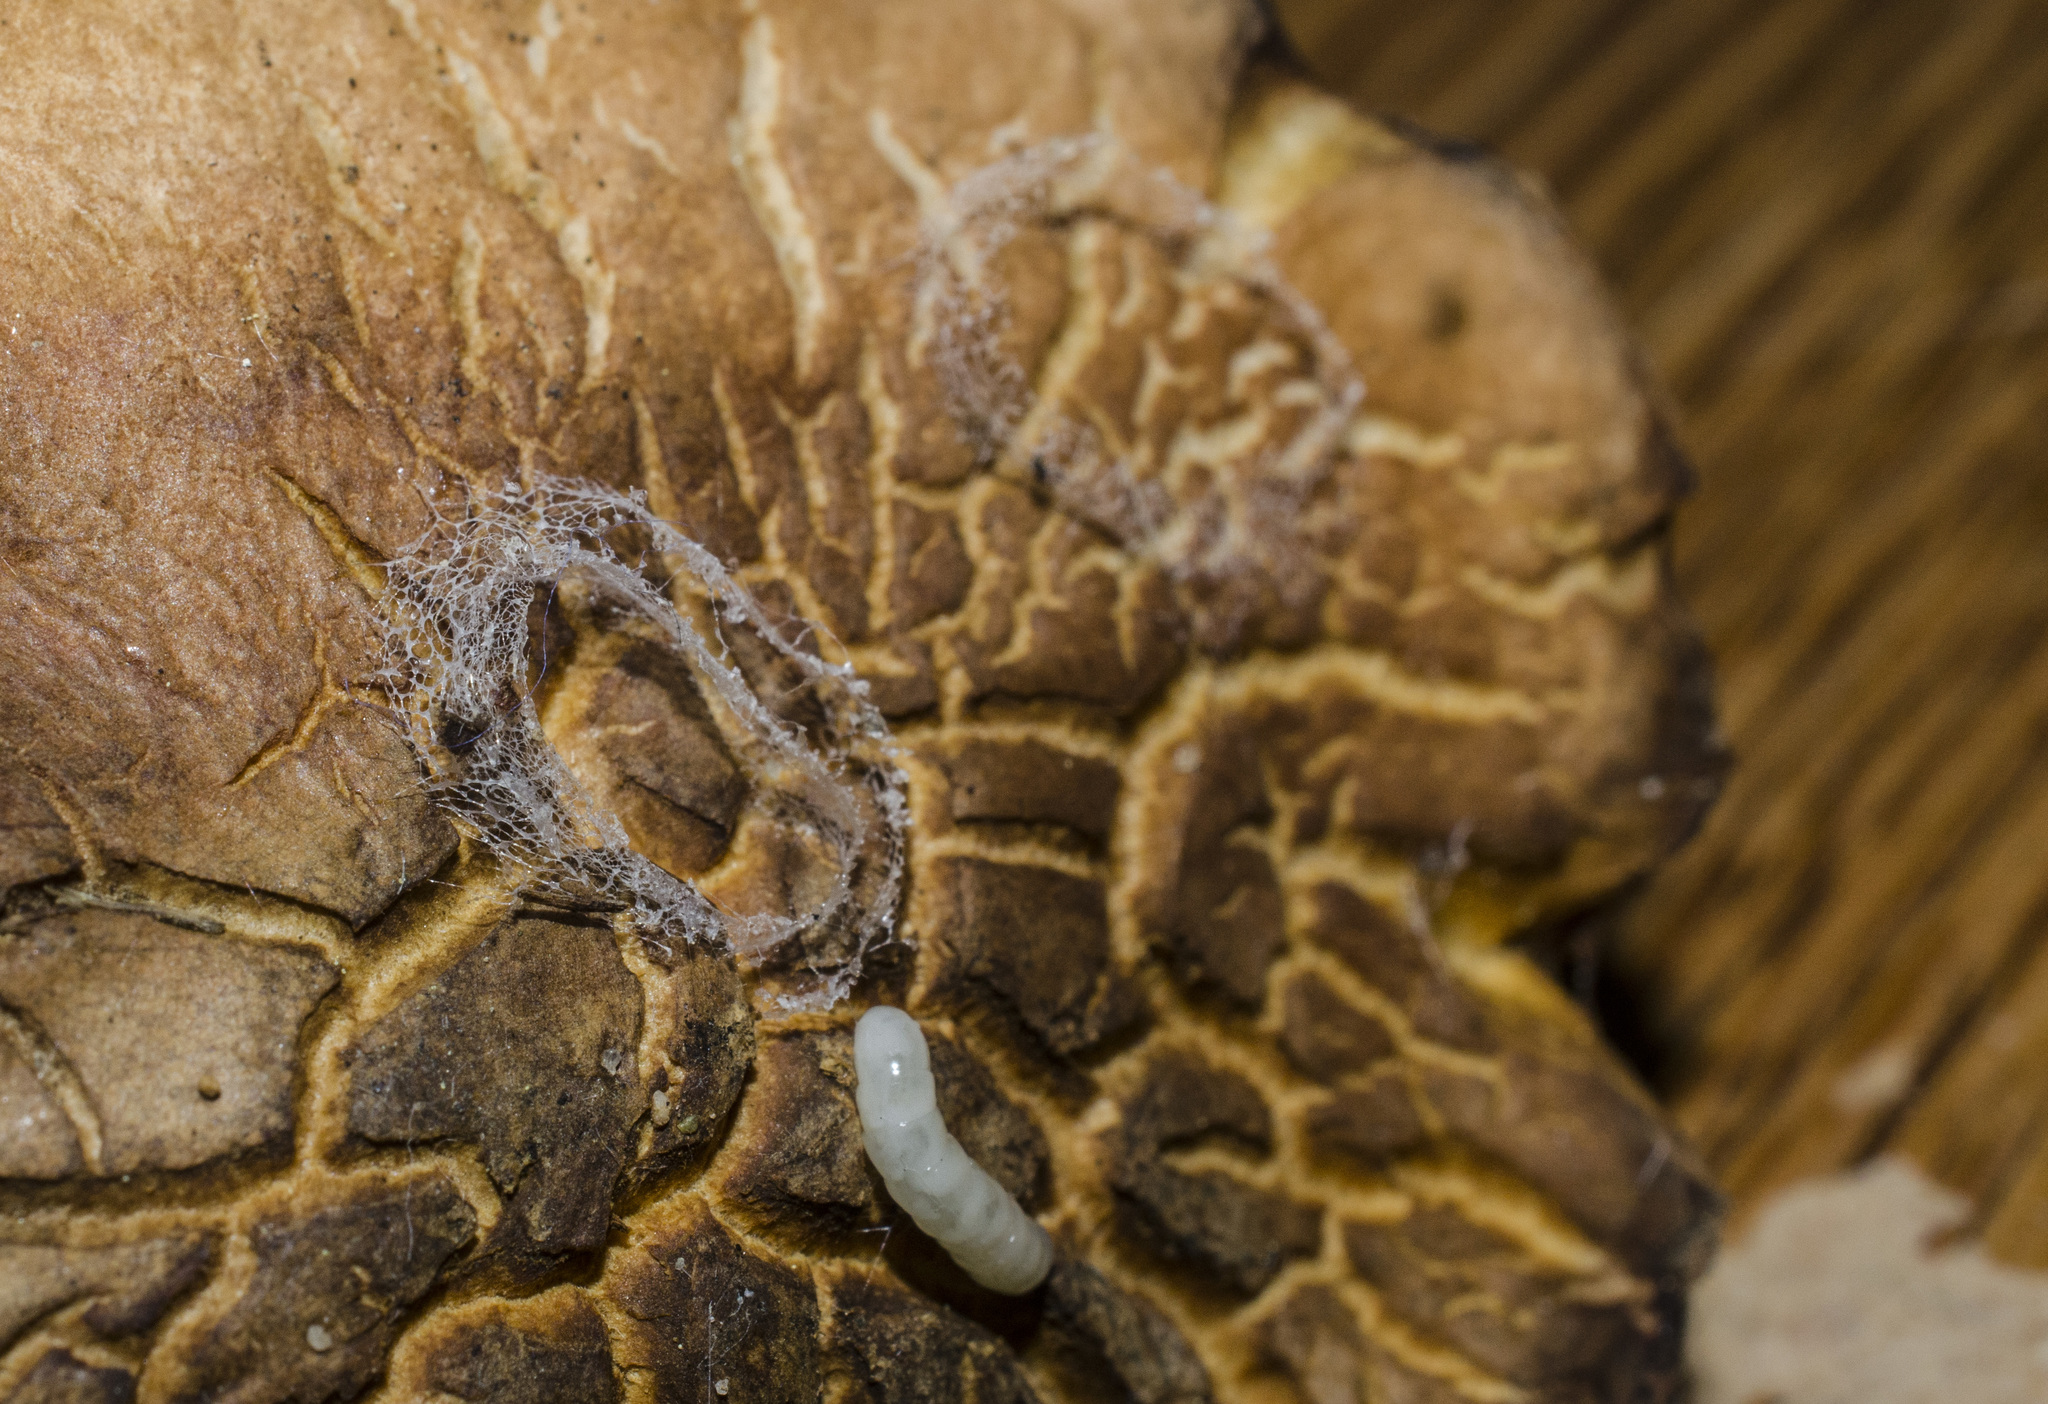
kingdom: Fungi
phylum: Basidiomycota
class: Agaricomycetes
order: Boletales
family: Gyroporaceae
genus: Gyroporus
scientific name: Gyroporus castaneus
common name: Chestnut bolete
